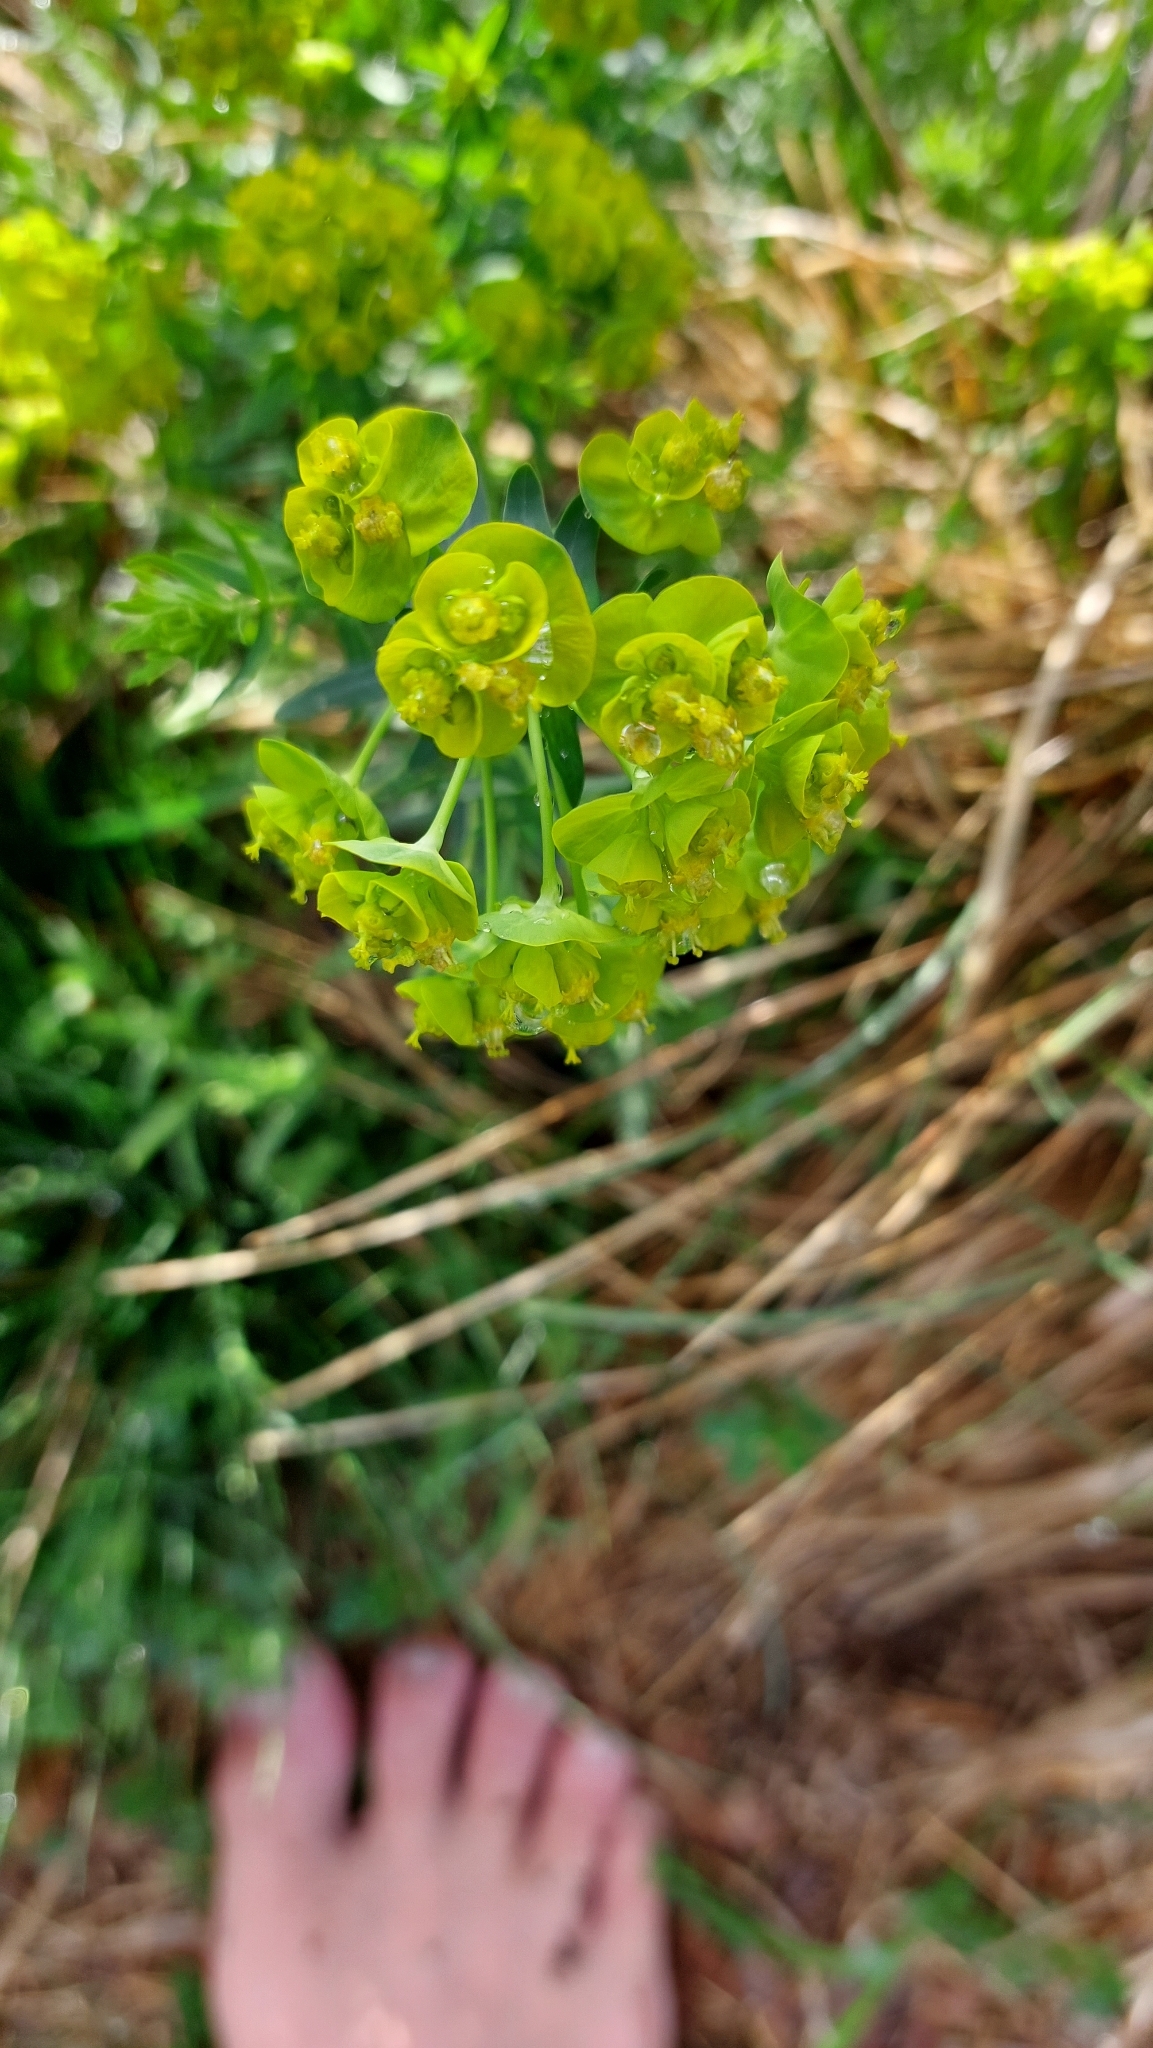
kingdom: Plantae
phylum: Tracheophyta
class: Magnoliopsida
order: Malpighiales
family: Euphorbiaceae
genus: Euphorbia
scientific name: Euphorbia cyparissias
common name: Cypress spurge
